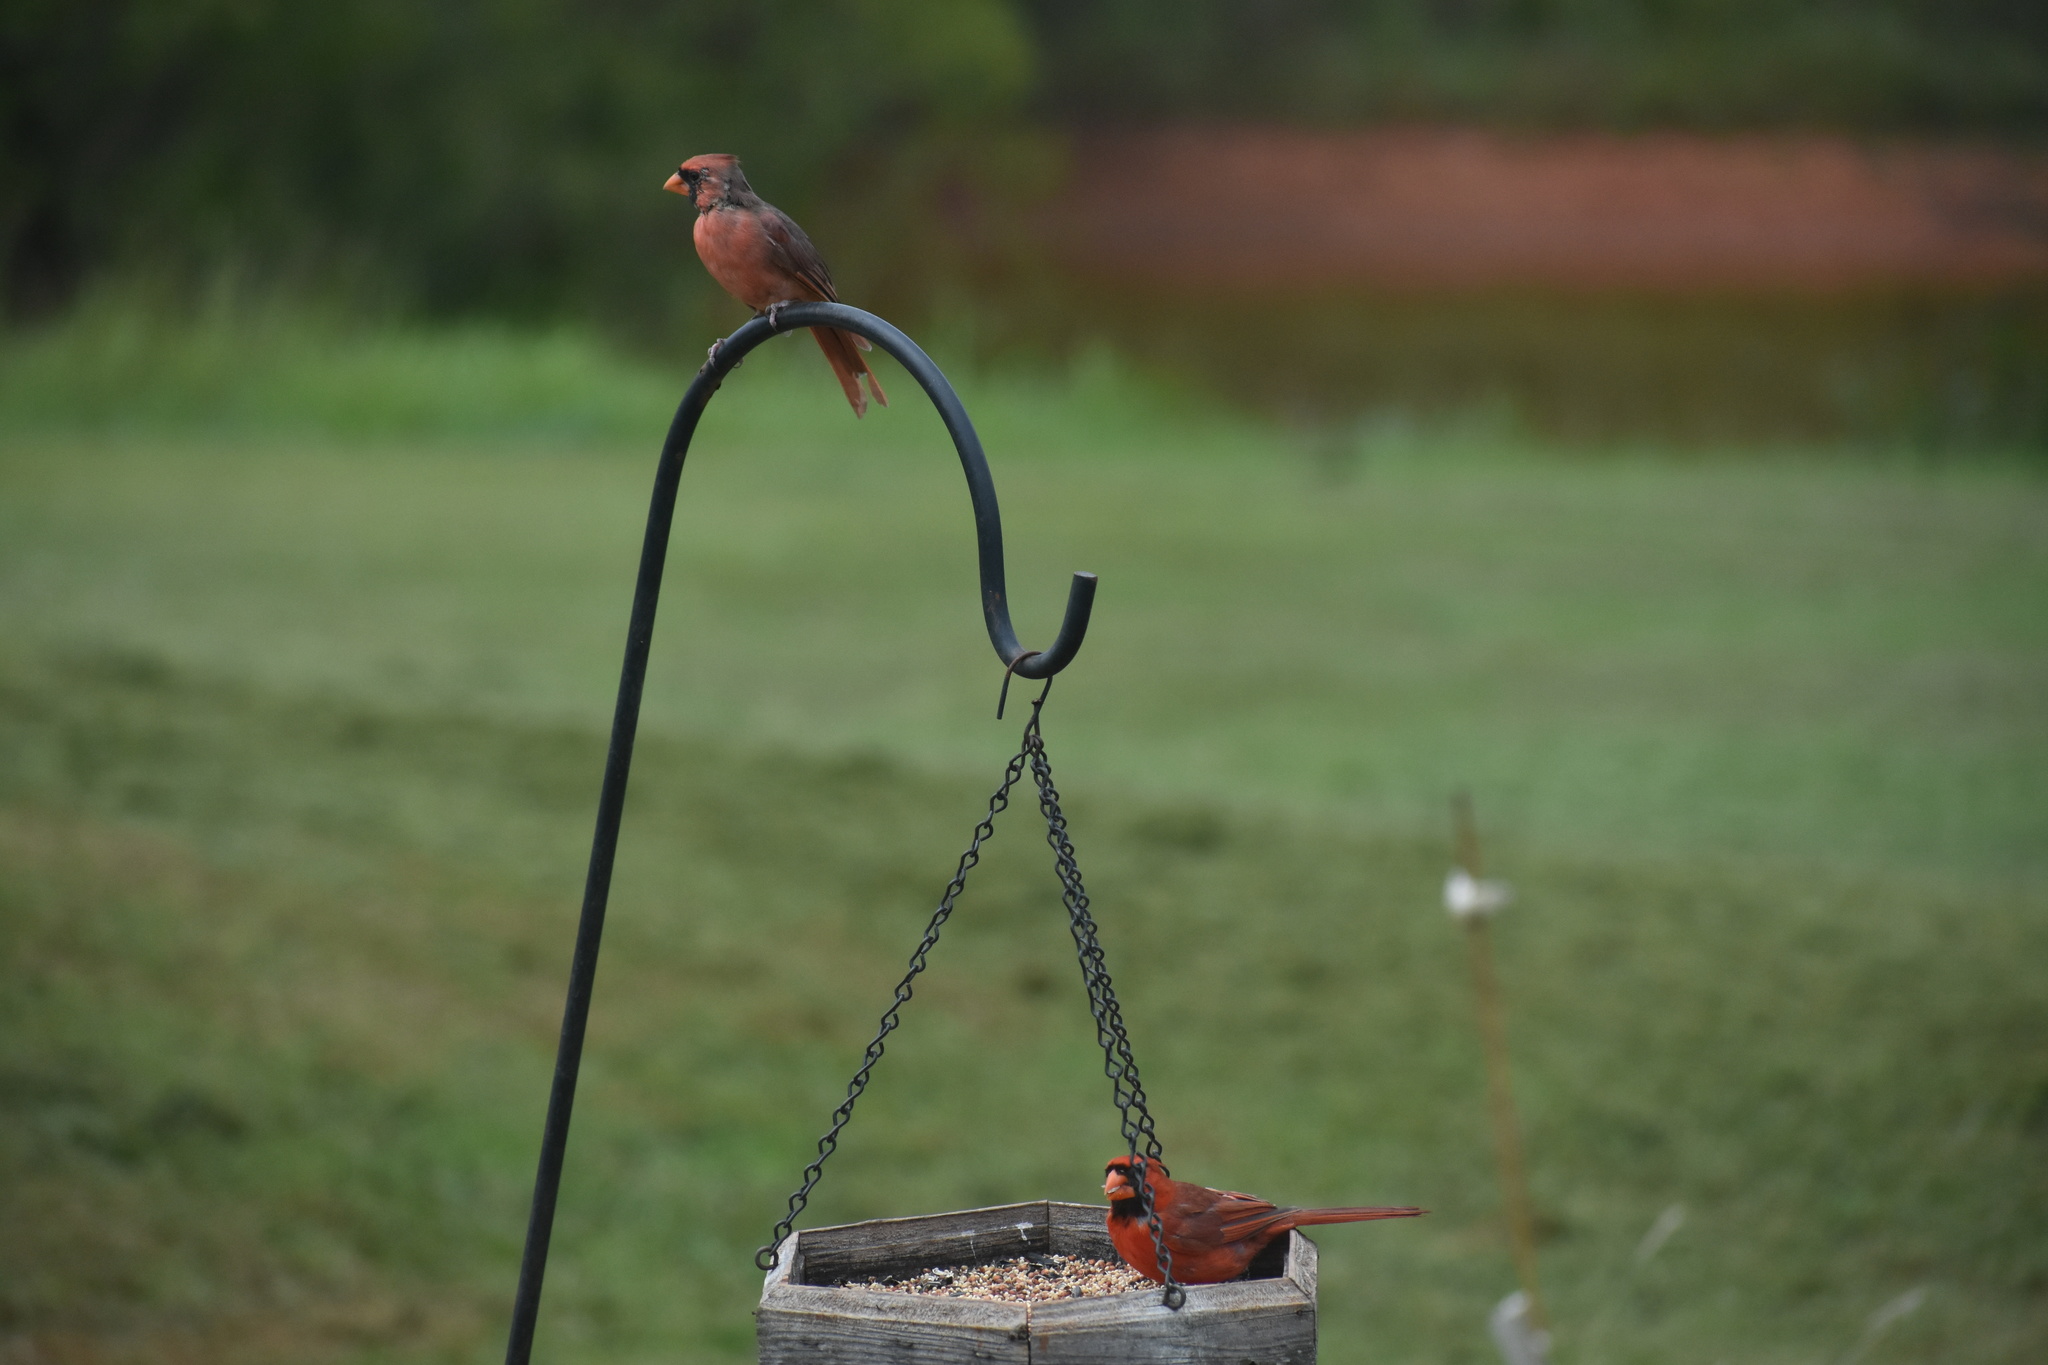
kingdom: Animalia
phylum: Chordata
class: Aves
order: Passeriformes
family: Cardinalidae
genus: Cardinalis
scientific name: Cardinalis cardinalis
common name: Northern cardinal
